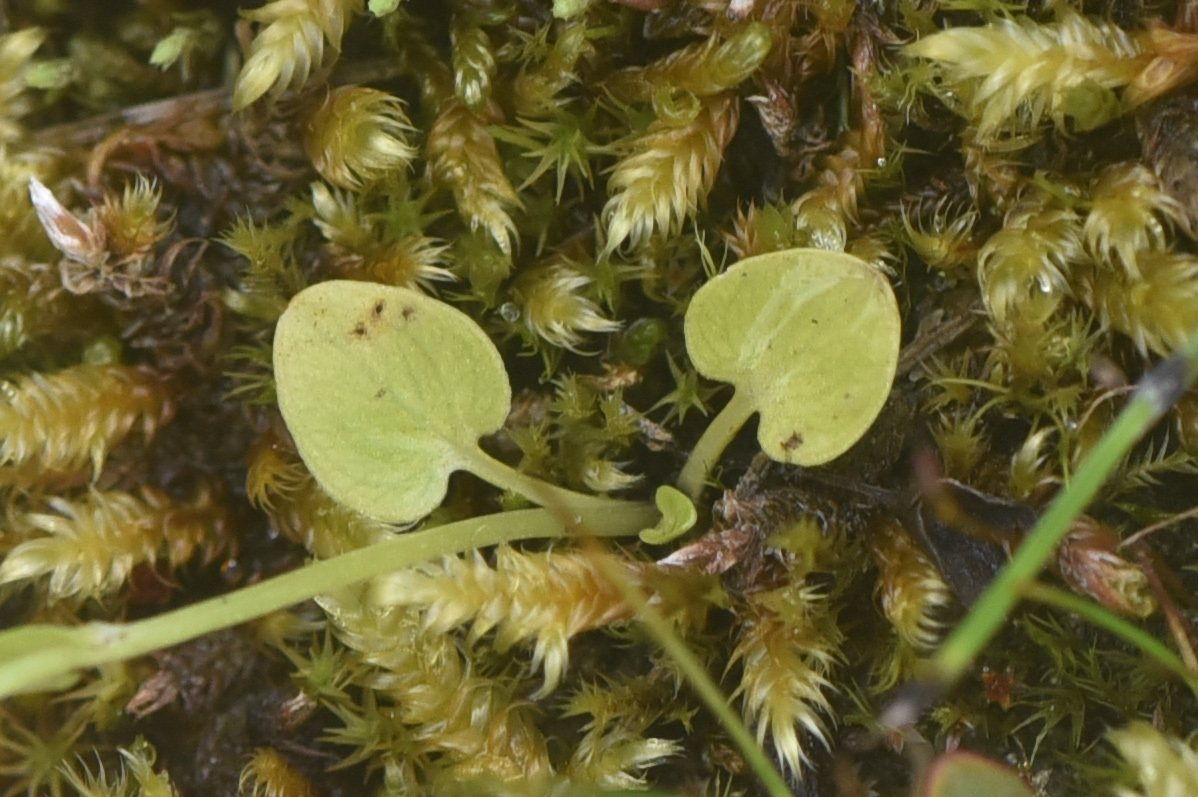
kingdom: Plantae
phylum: Tracheophyta
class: Magnoliopsida
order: Celastrales
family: Parnassiaceae
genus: Parnassia
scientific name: Parnassia palustris
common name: Grass-of-parnassus
